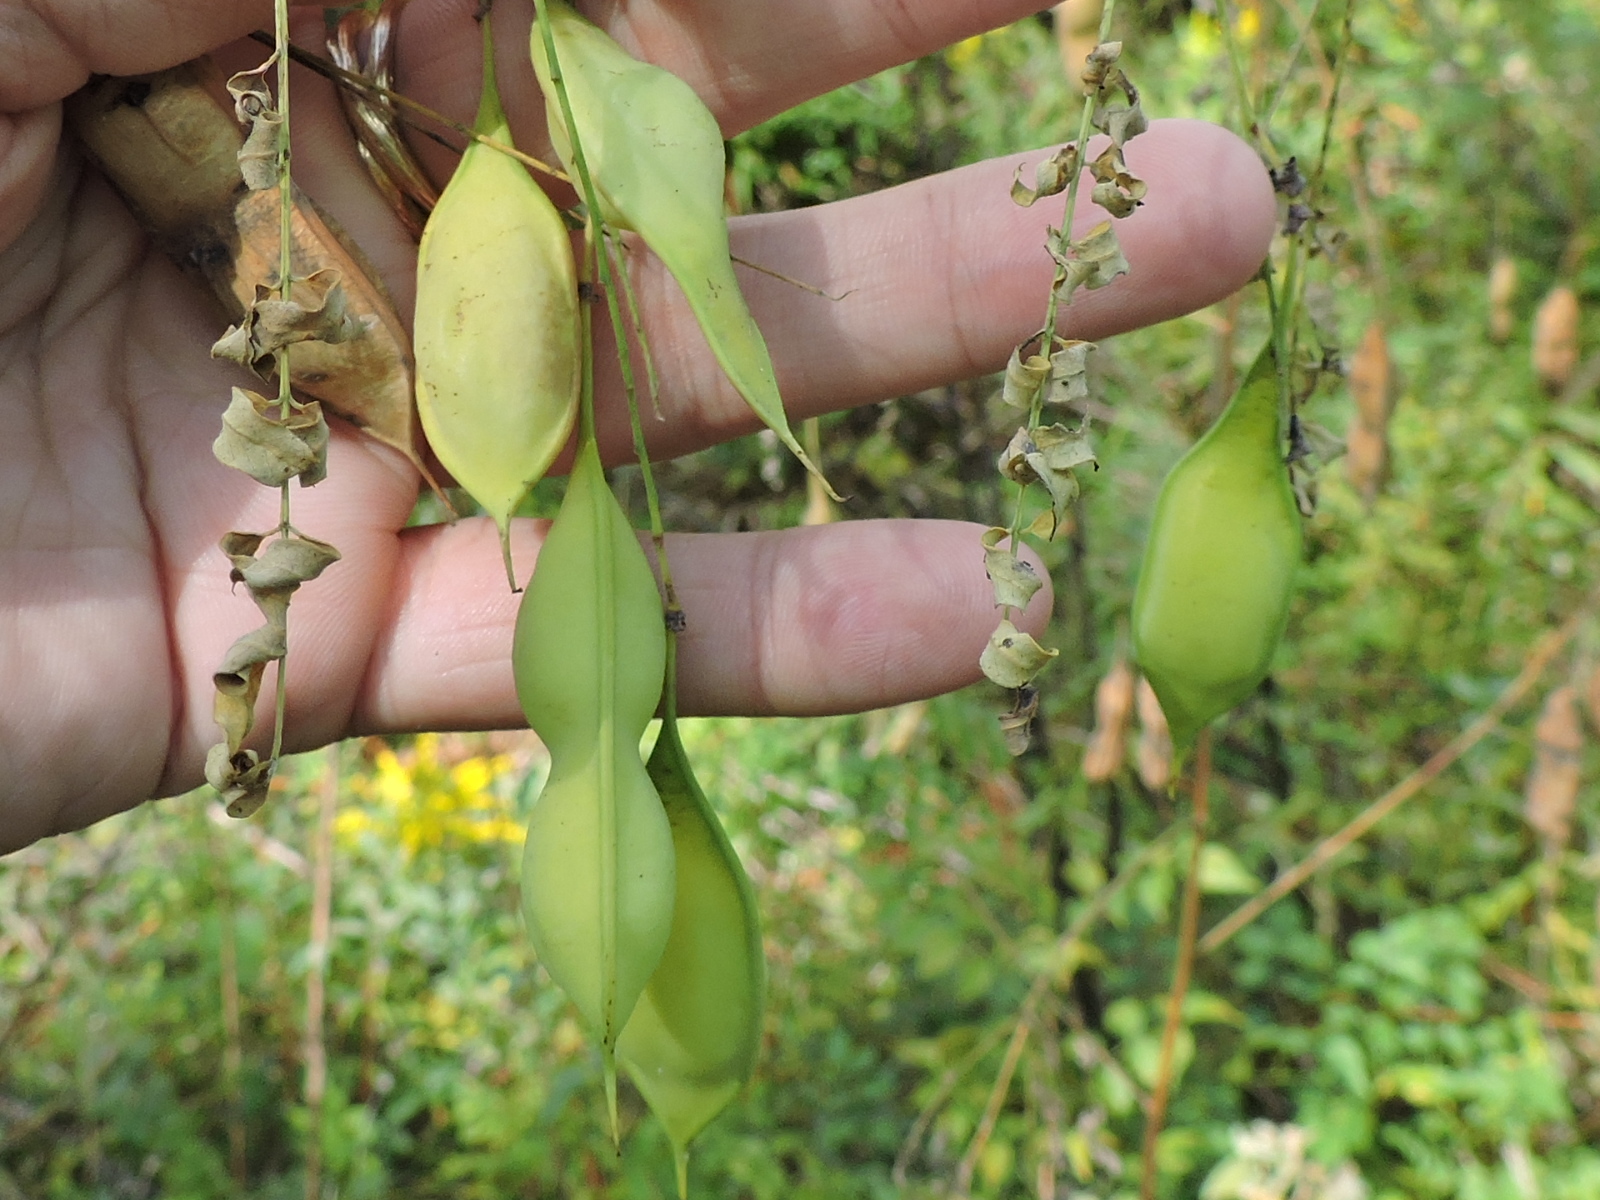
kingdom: Plantae
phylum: Tracheophyta
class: Magnoliopsida
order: Fabales
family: Fabaceae
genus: Sesbania
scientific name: Sesbania vesicaria
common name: Bagpod
